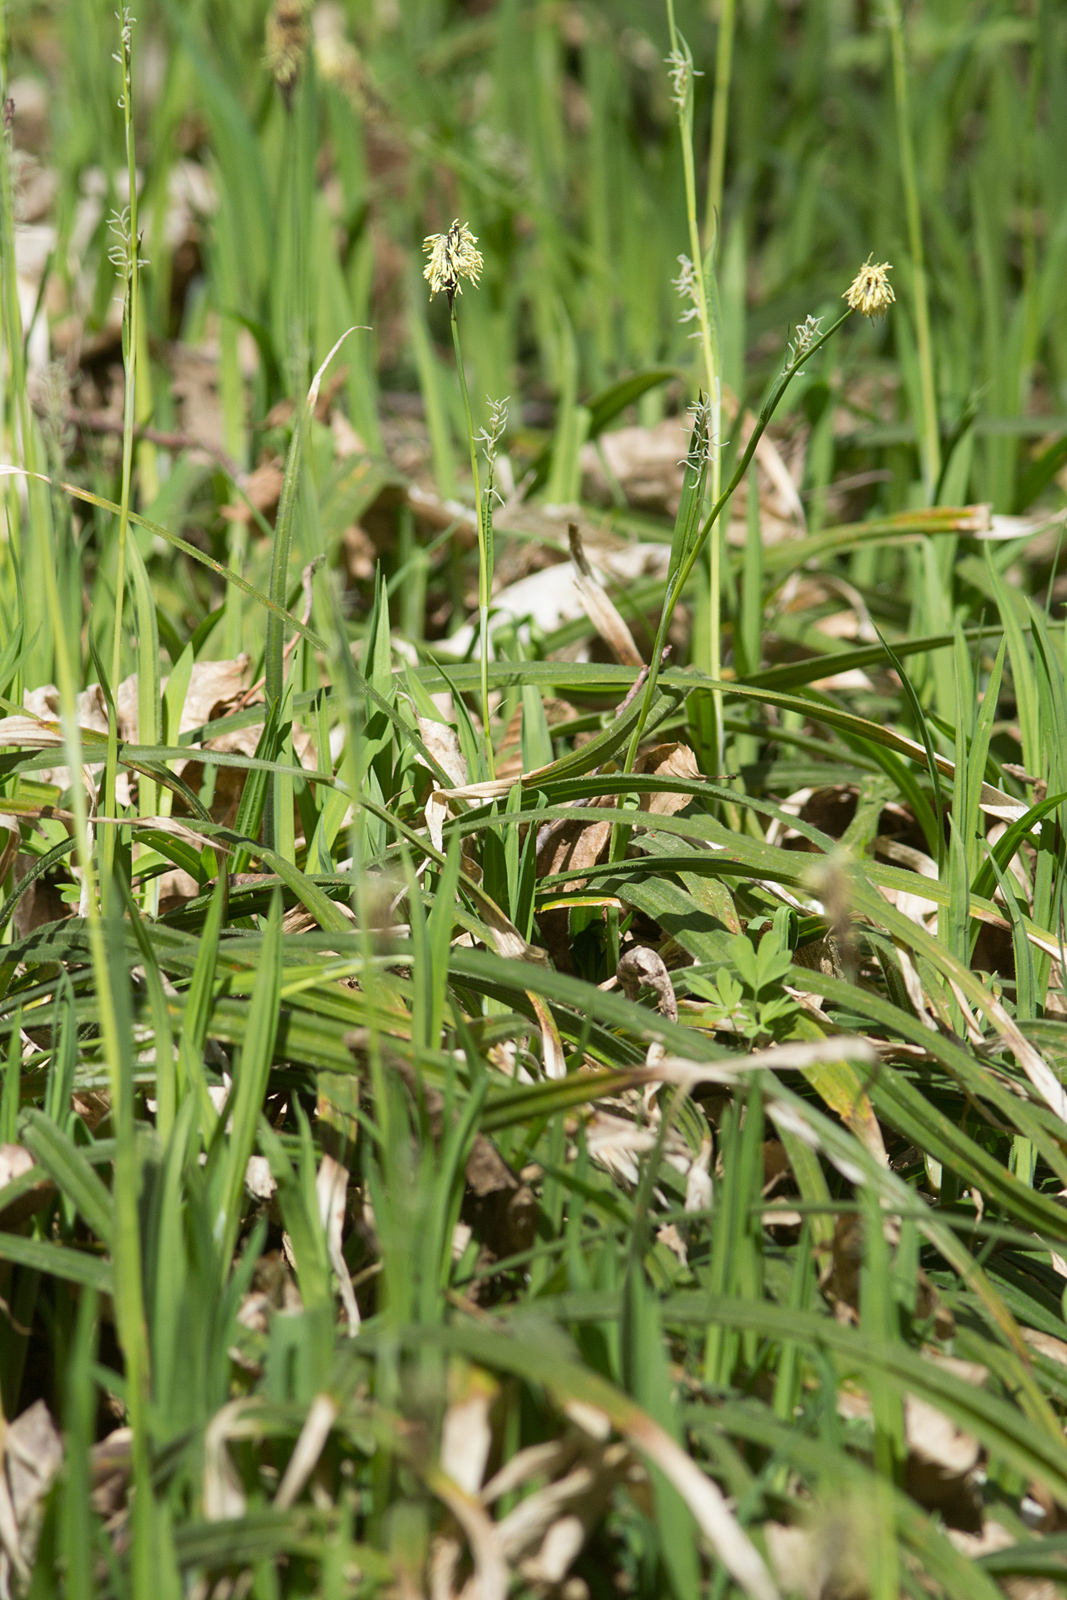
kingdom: Plantae
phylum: Tracheophyta
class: Liliopsida
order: Poales
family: Cyperaceae
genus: Carex
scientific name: Carex pilosa
